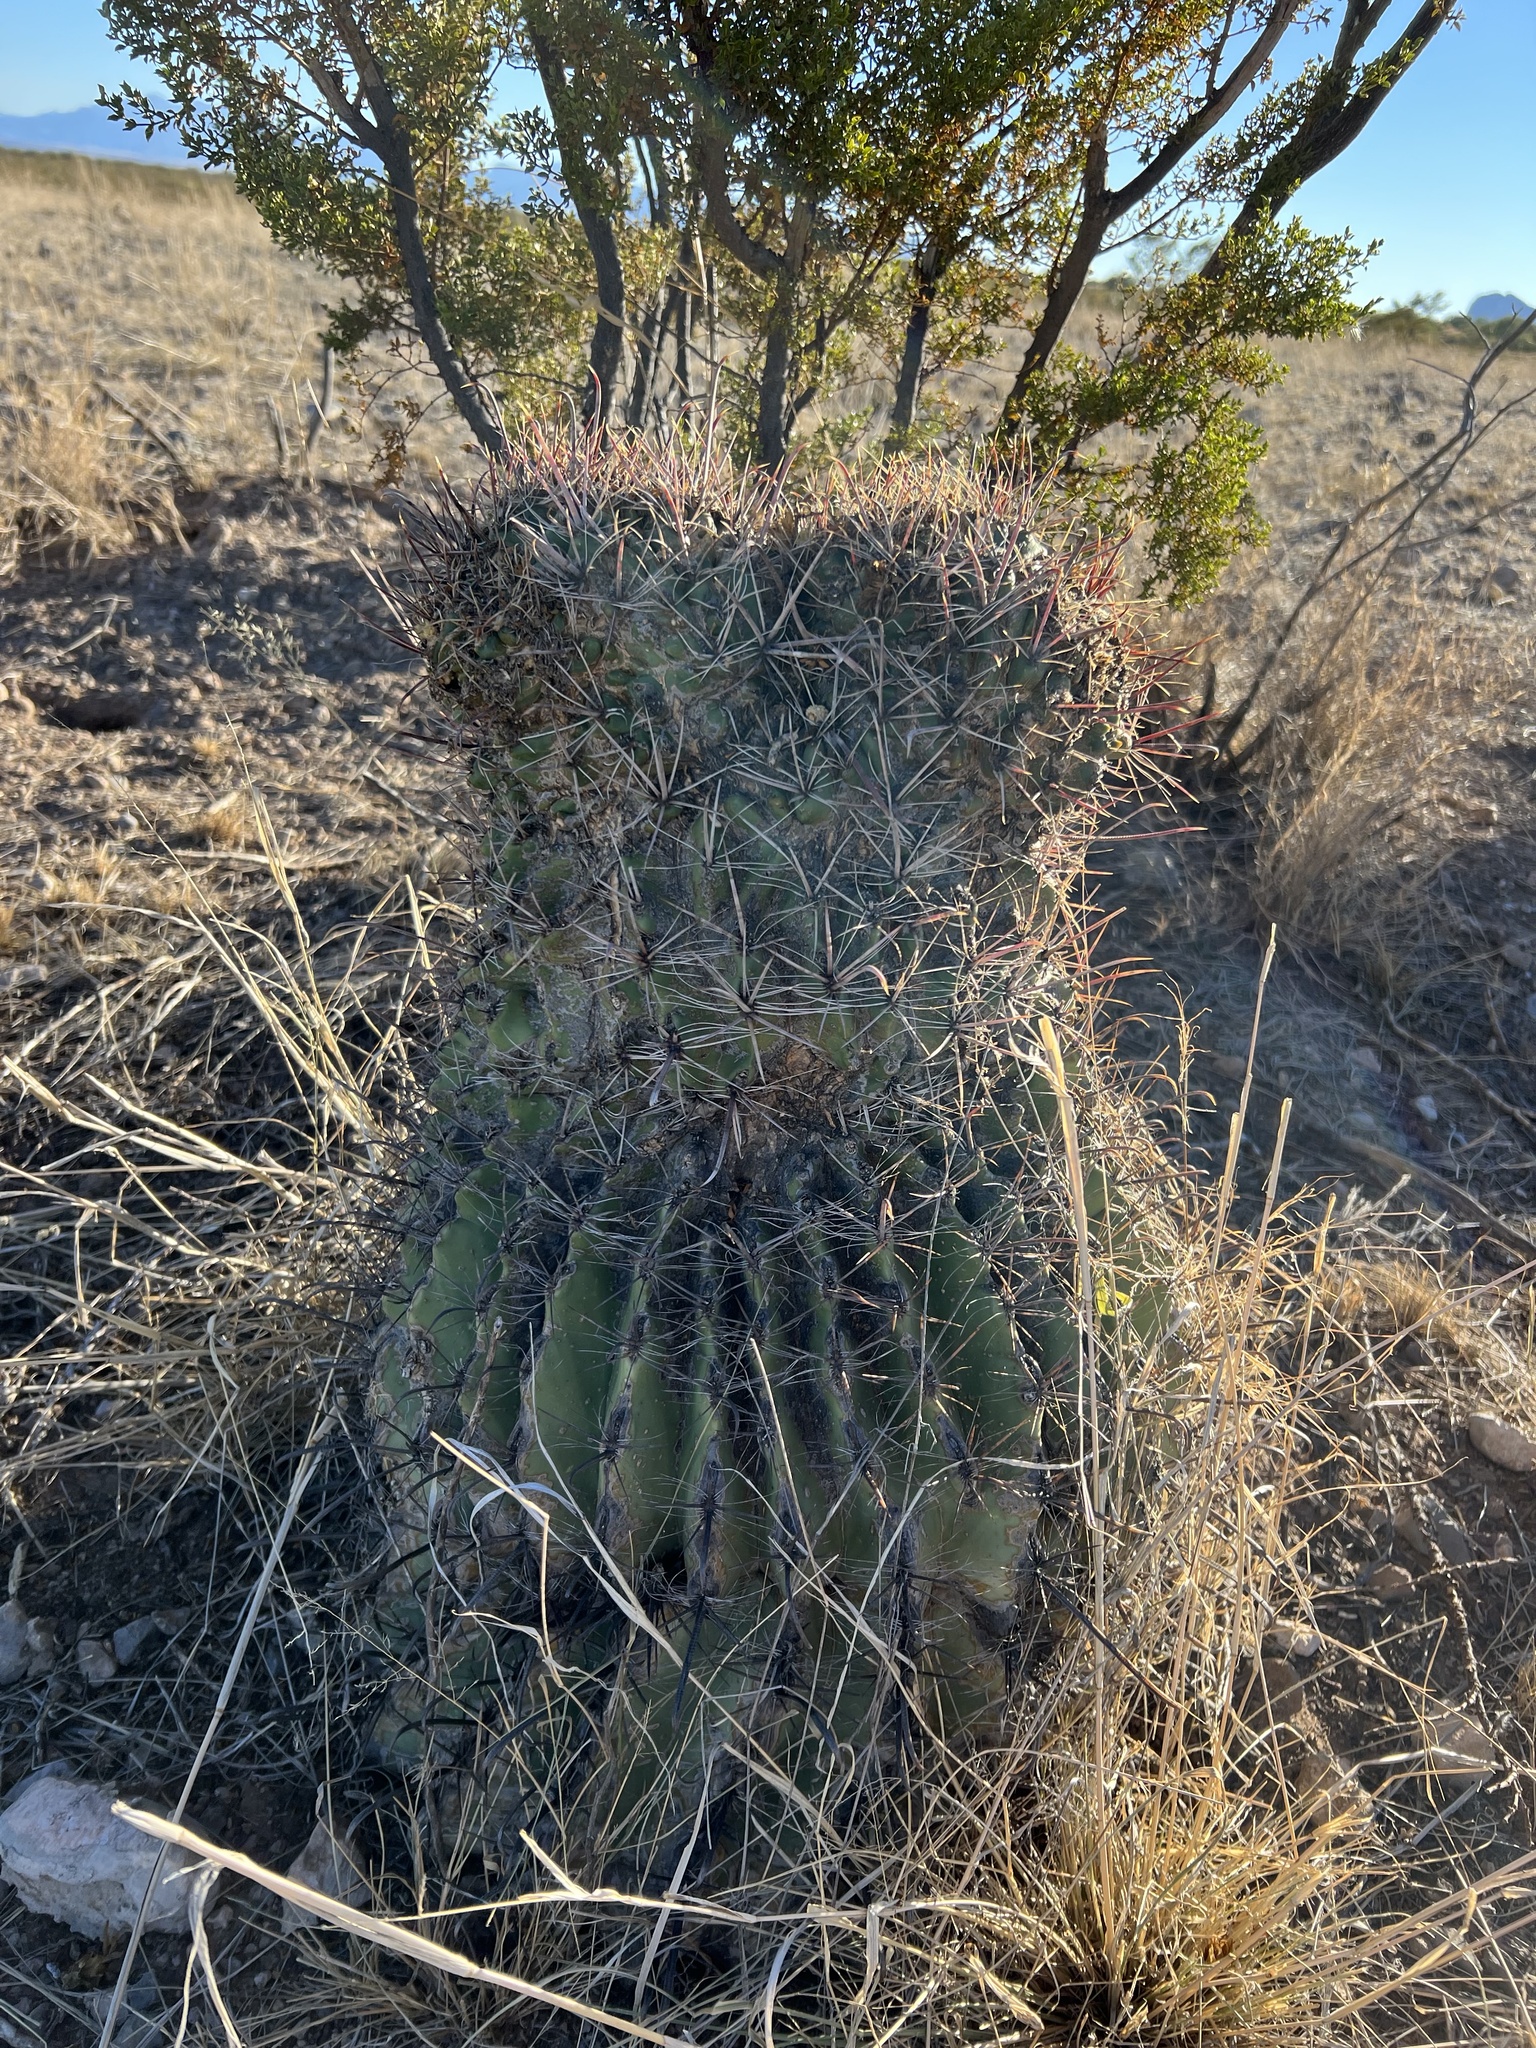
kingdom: Plantae
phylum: Tracheophyta
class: Magnoliopsida
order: Caryophyllales
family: Cactaceae
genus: Ferocactus
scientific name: Ferocactus wislizeni
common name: Candy barrel cactus
